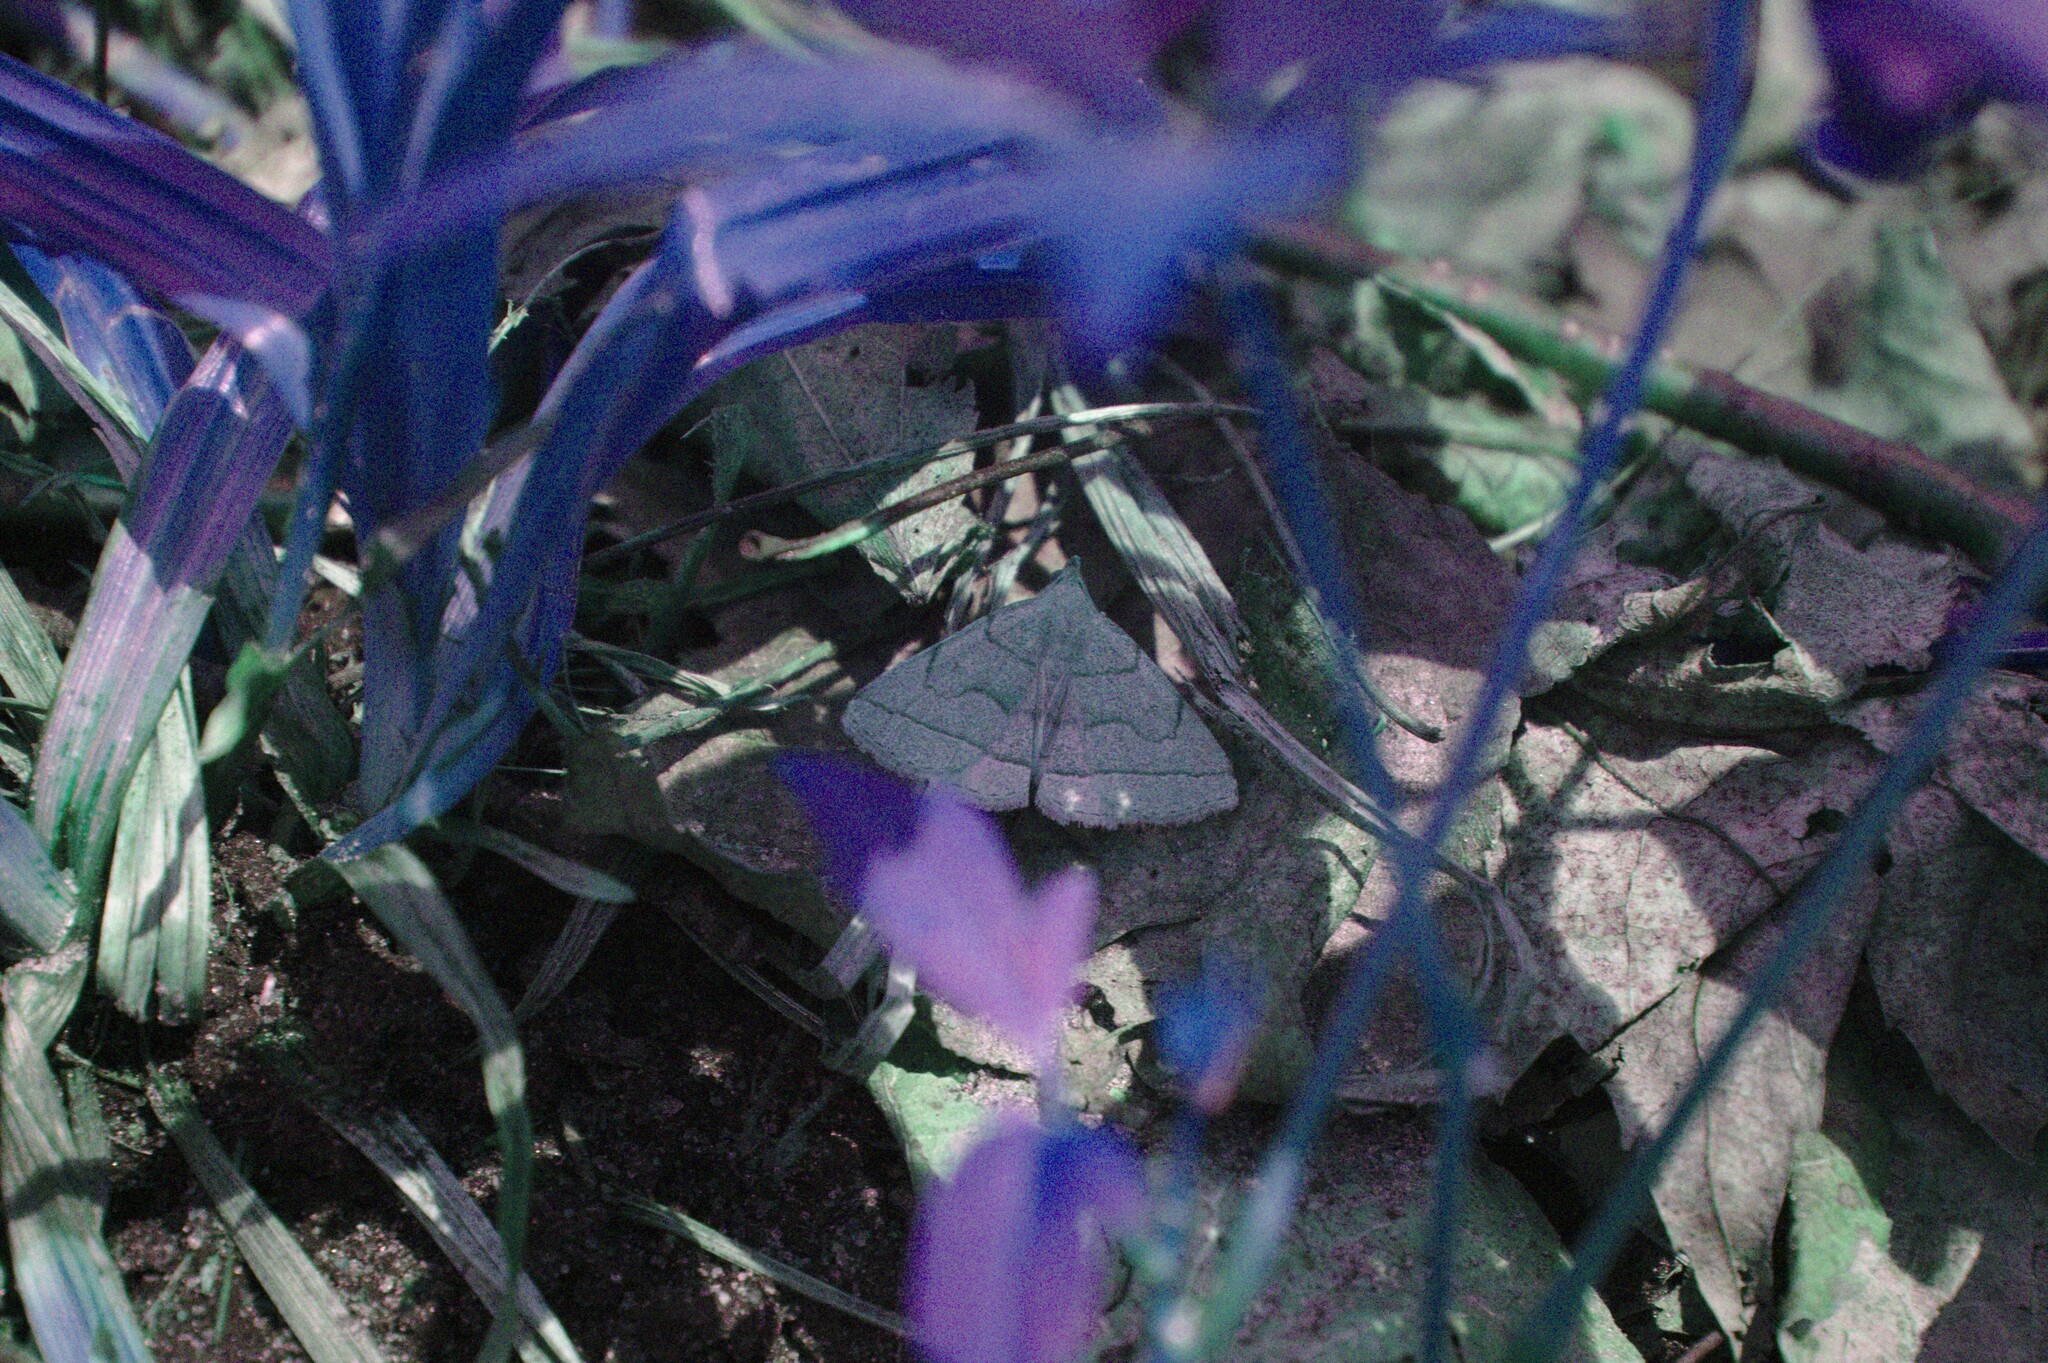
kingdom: Animalia
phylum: Arthropoda
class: Insecta
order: Lepidoptera
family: Erebidae
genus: Zanclognatha
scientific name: Zanclognatha pedipilalis
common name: Grayish fan-foot
